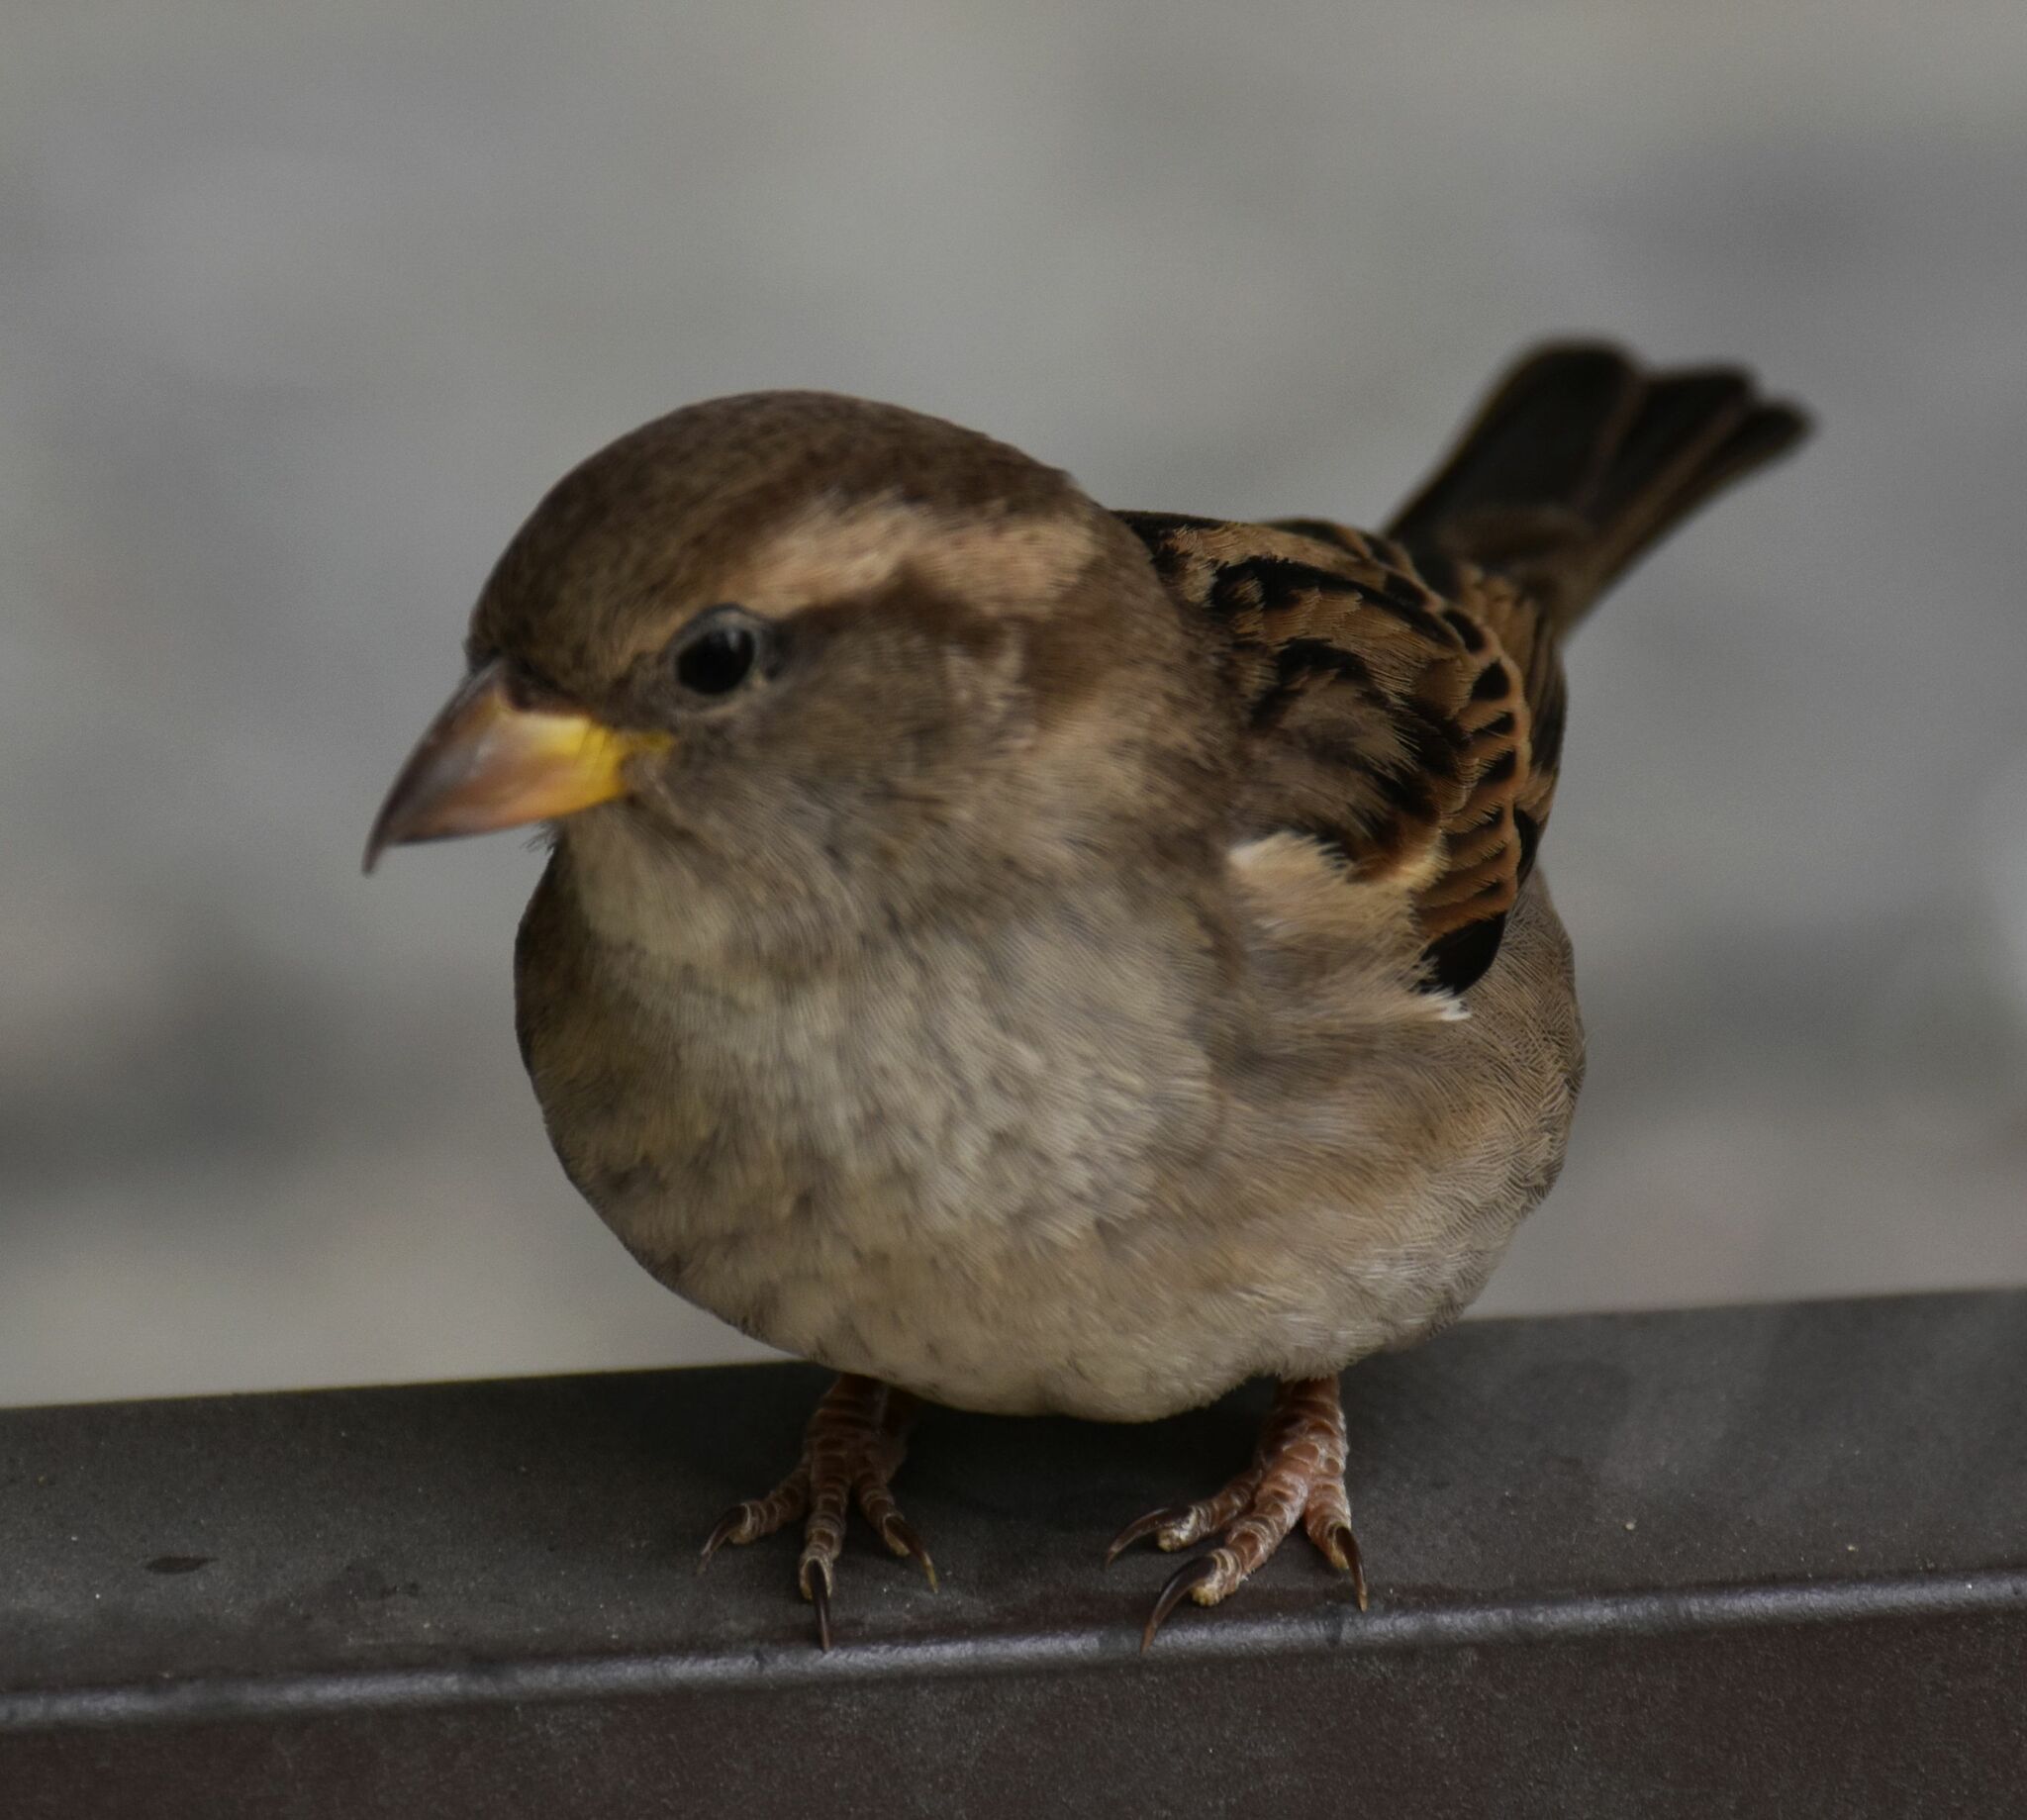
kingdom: Animalia
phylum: Chordata
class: Aves
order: Passeriformes
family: Passeridae
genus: Passer
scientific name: Passer domesticus
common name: House sparrow
